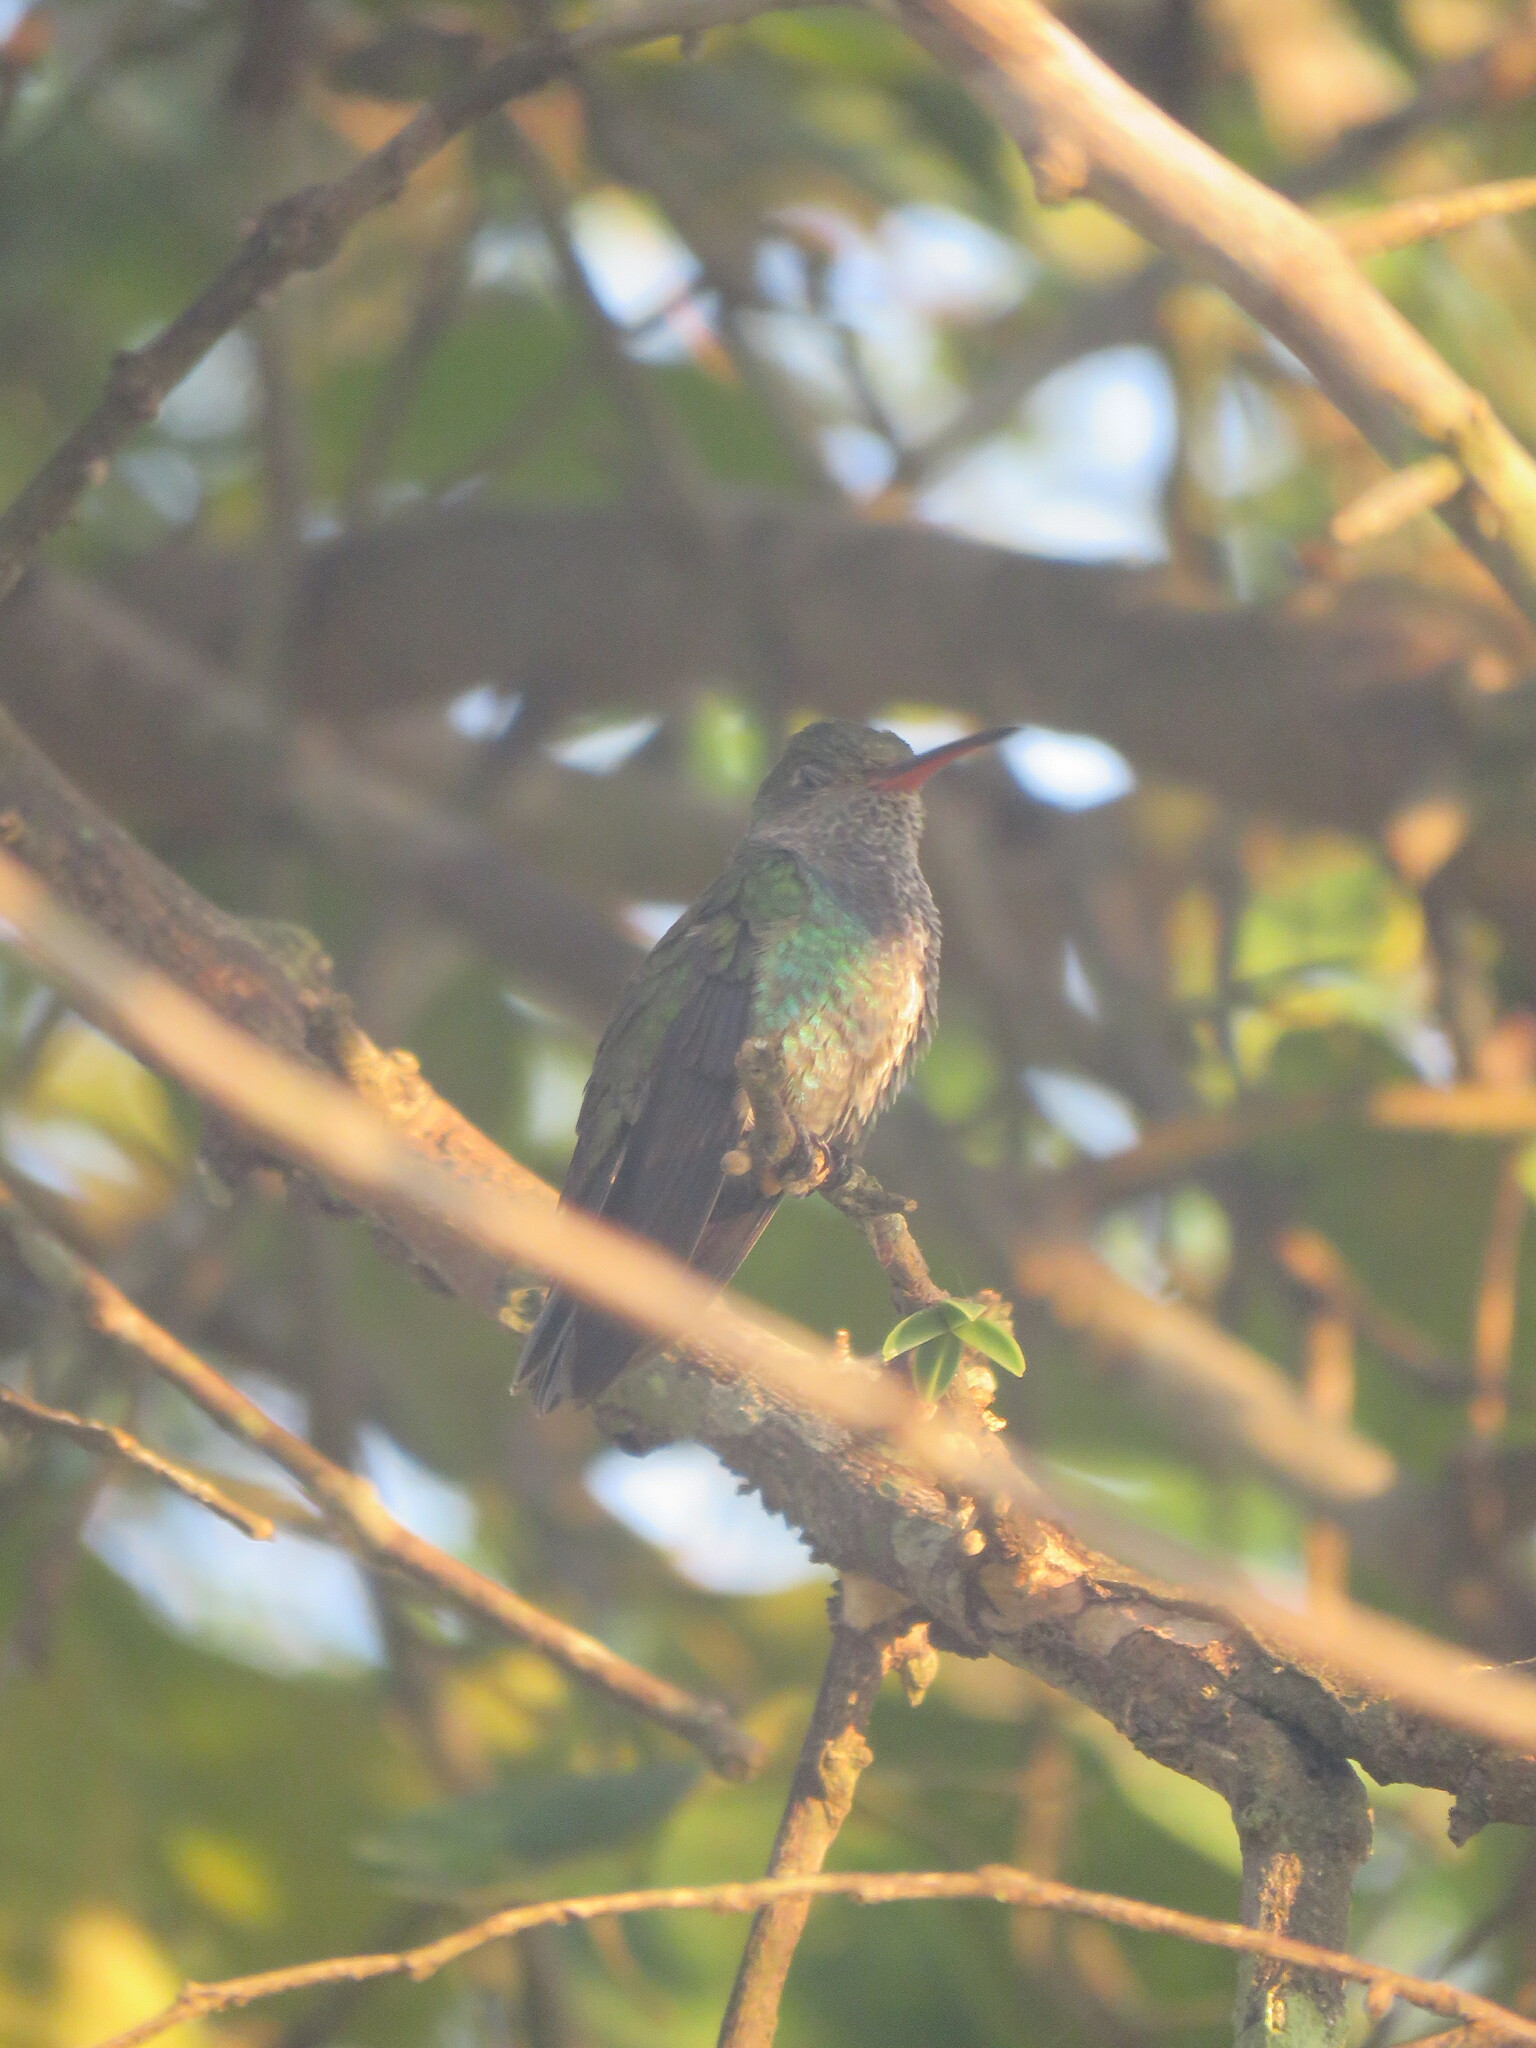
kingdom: Animalia
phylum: Chordata
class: Aves
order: Apodiformes
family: Trochilidae
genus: Chionomesa
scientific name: Chionomesa lactea
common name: Sapphire-spangled emerald
